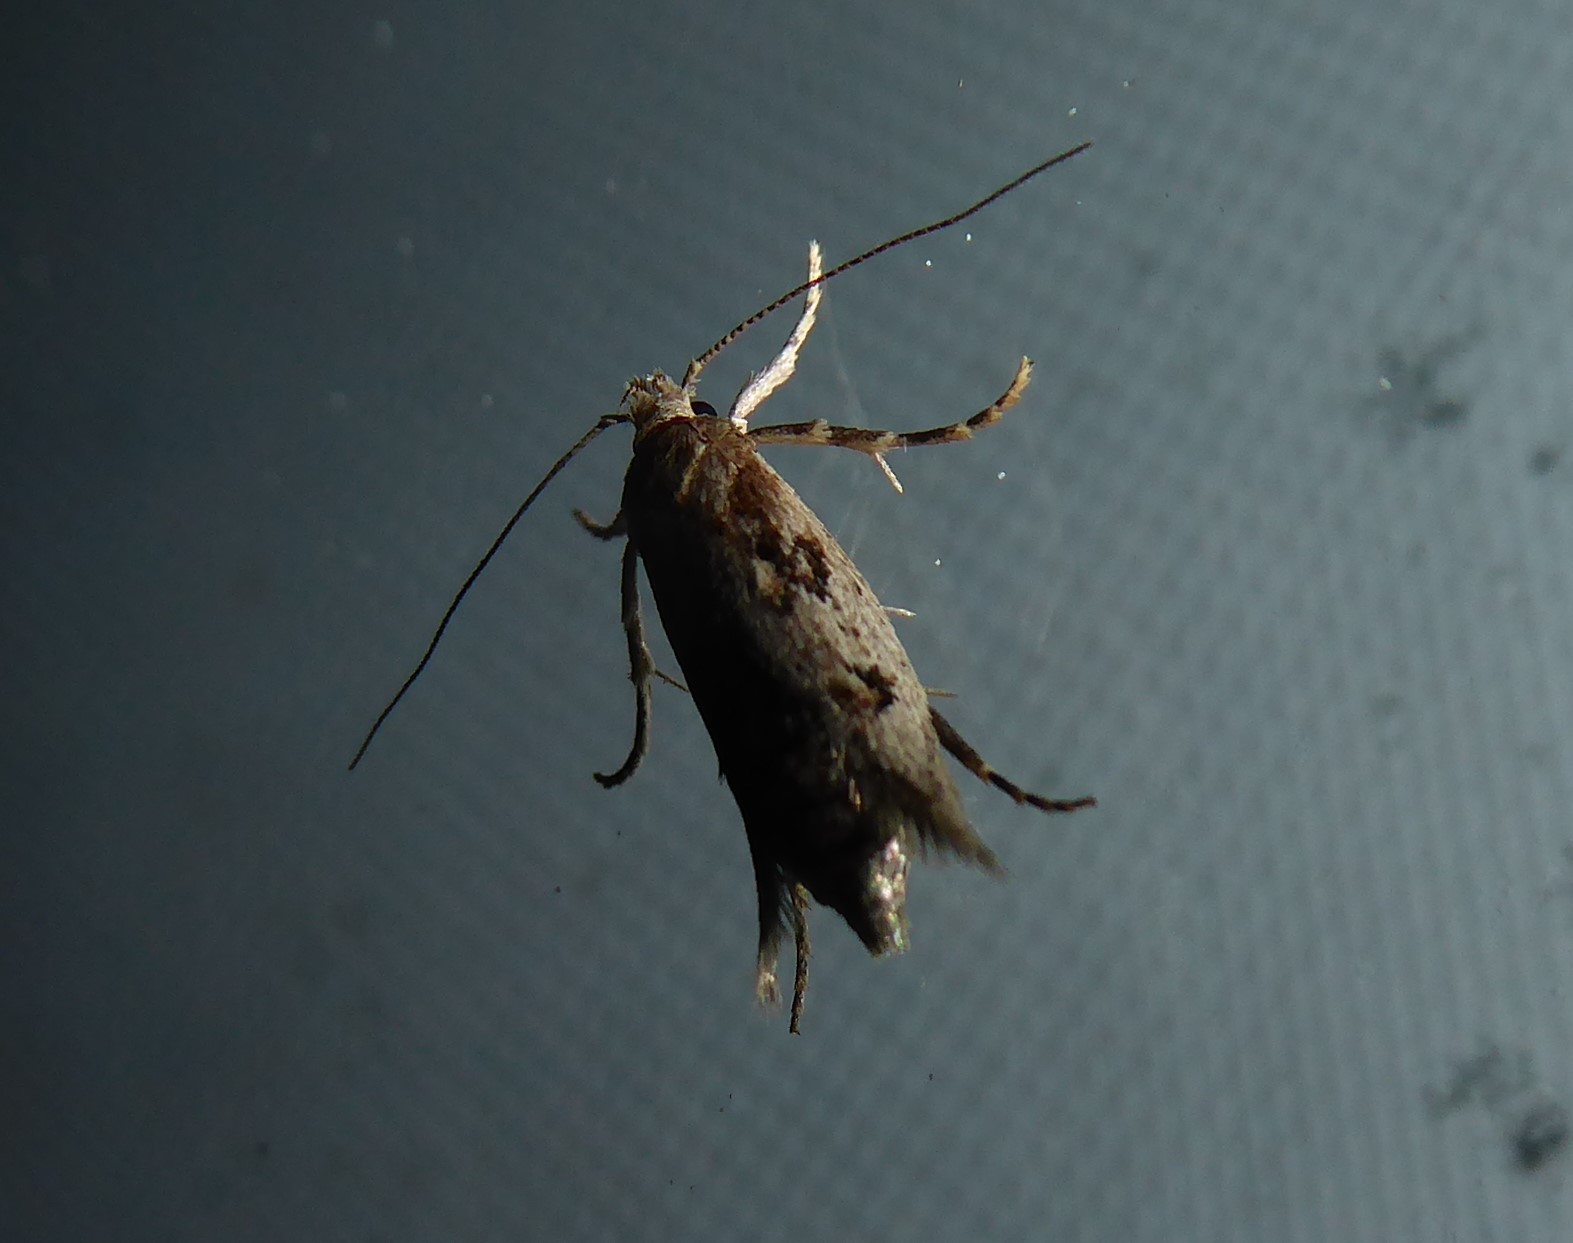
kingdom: Animalia
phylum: Arthropoda
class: Insecta
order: Lepidoptera
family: Oecophoridae
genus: Atomotricha
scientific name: Atomotricha chloronota
